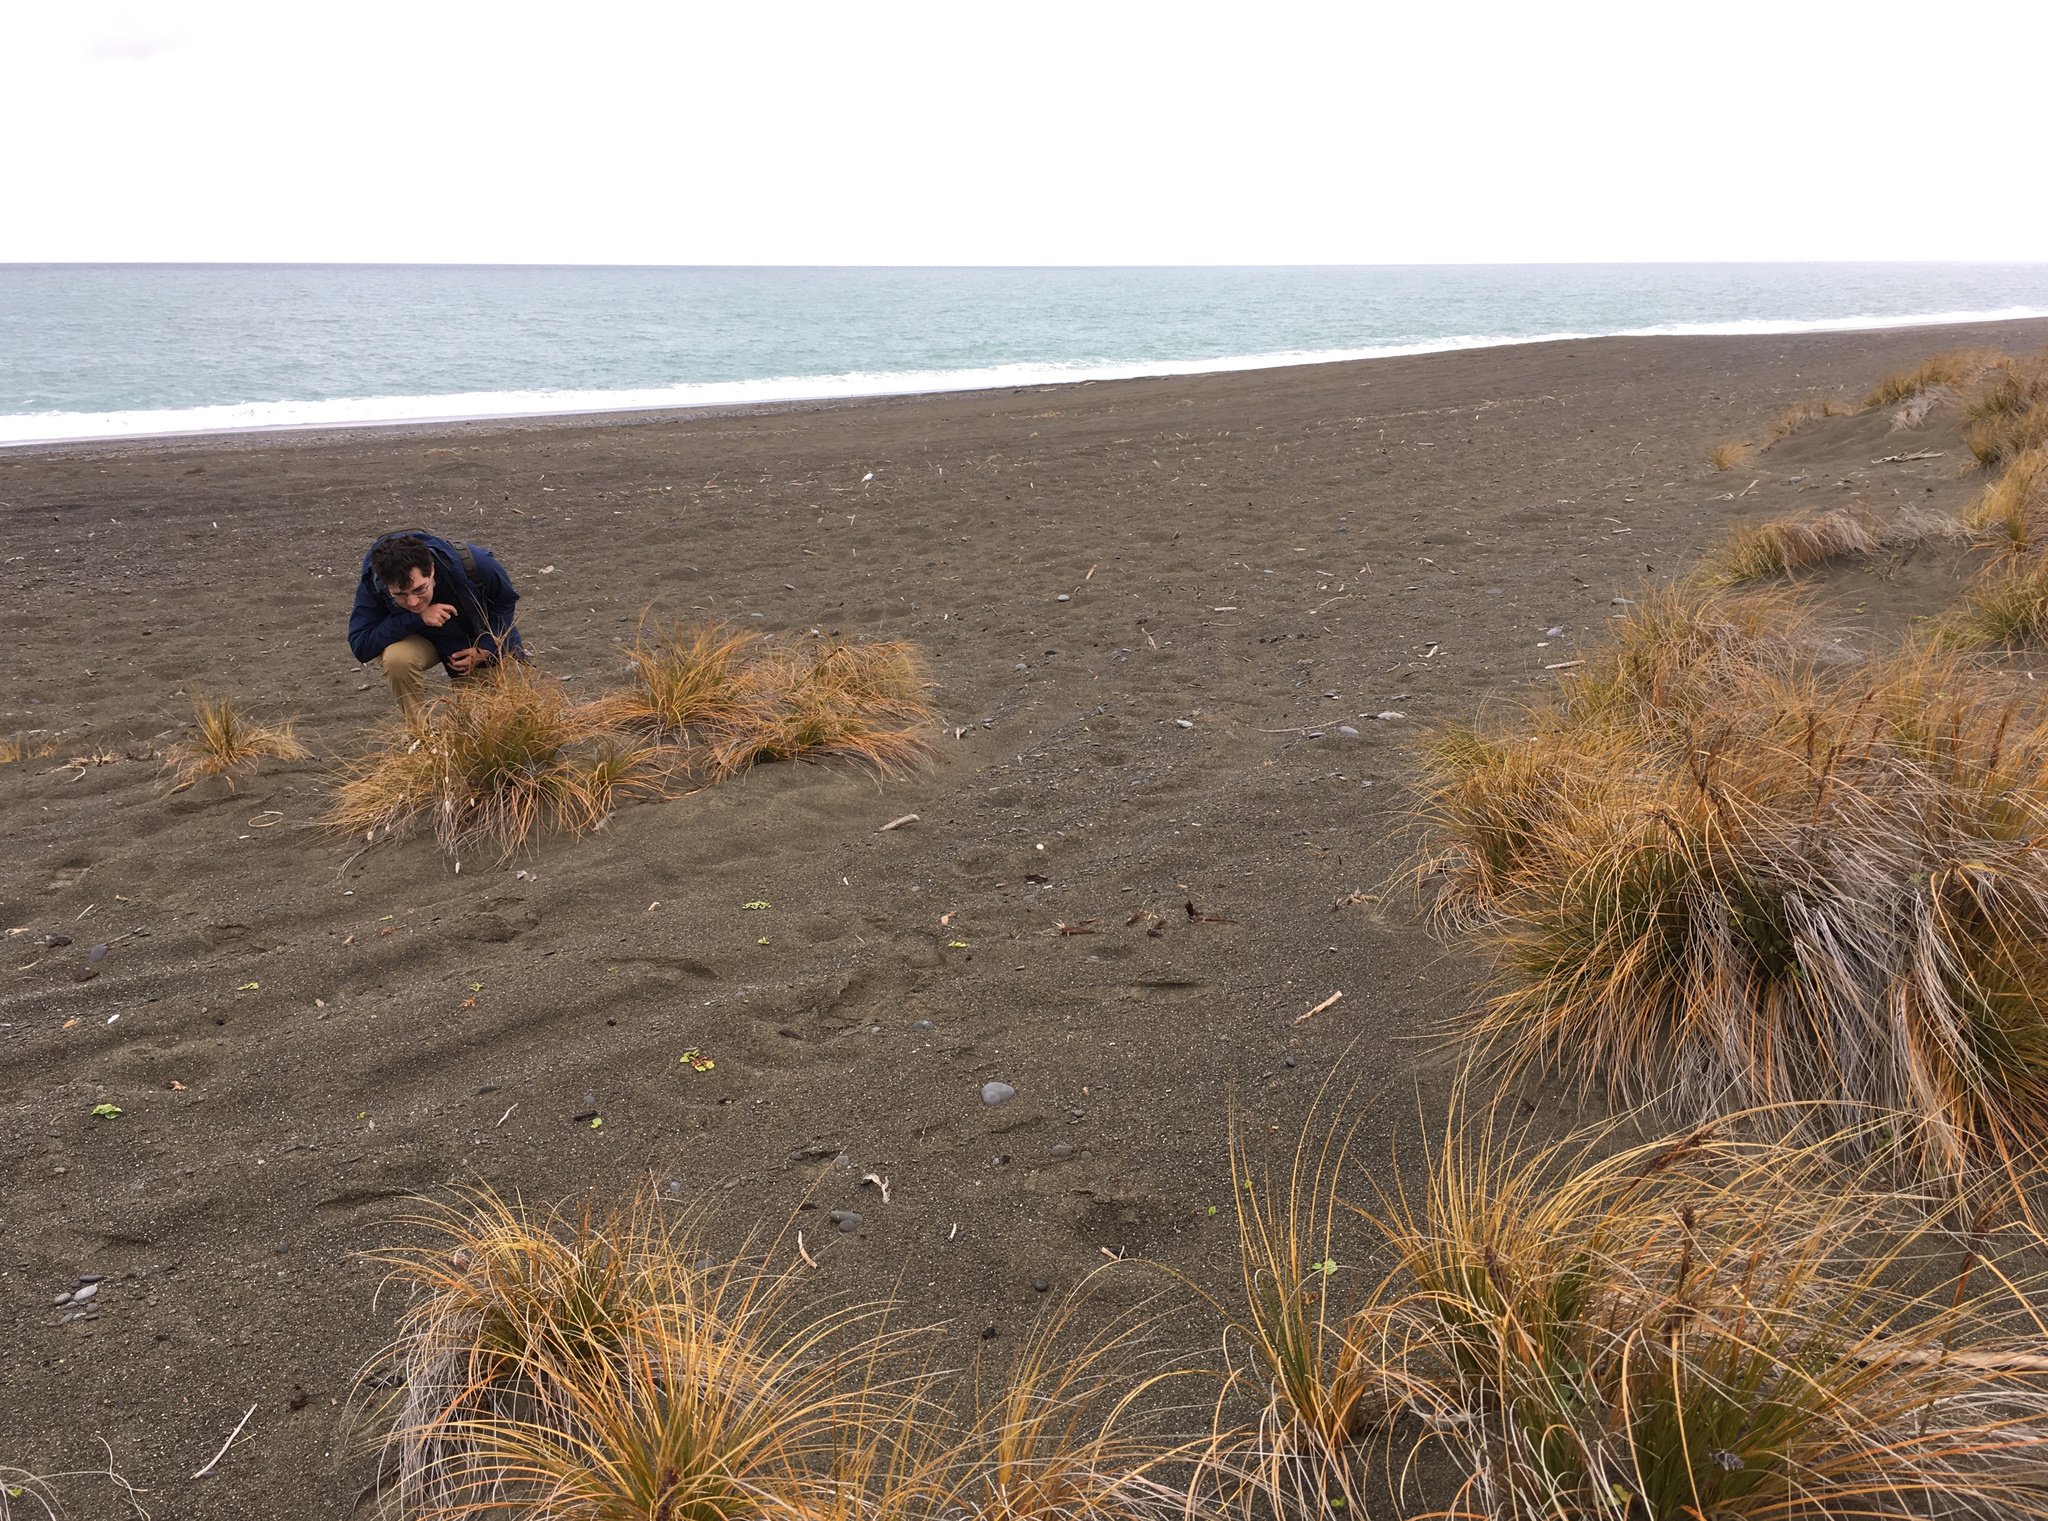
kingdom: Plantae
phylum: Tracheophyta
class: Liliopsida
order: Poales
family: Cyperaceae
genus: Ficinia
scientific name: Ficinia spiralis
